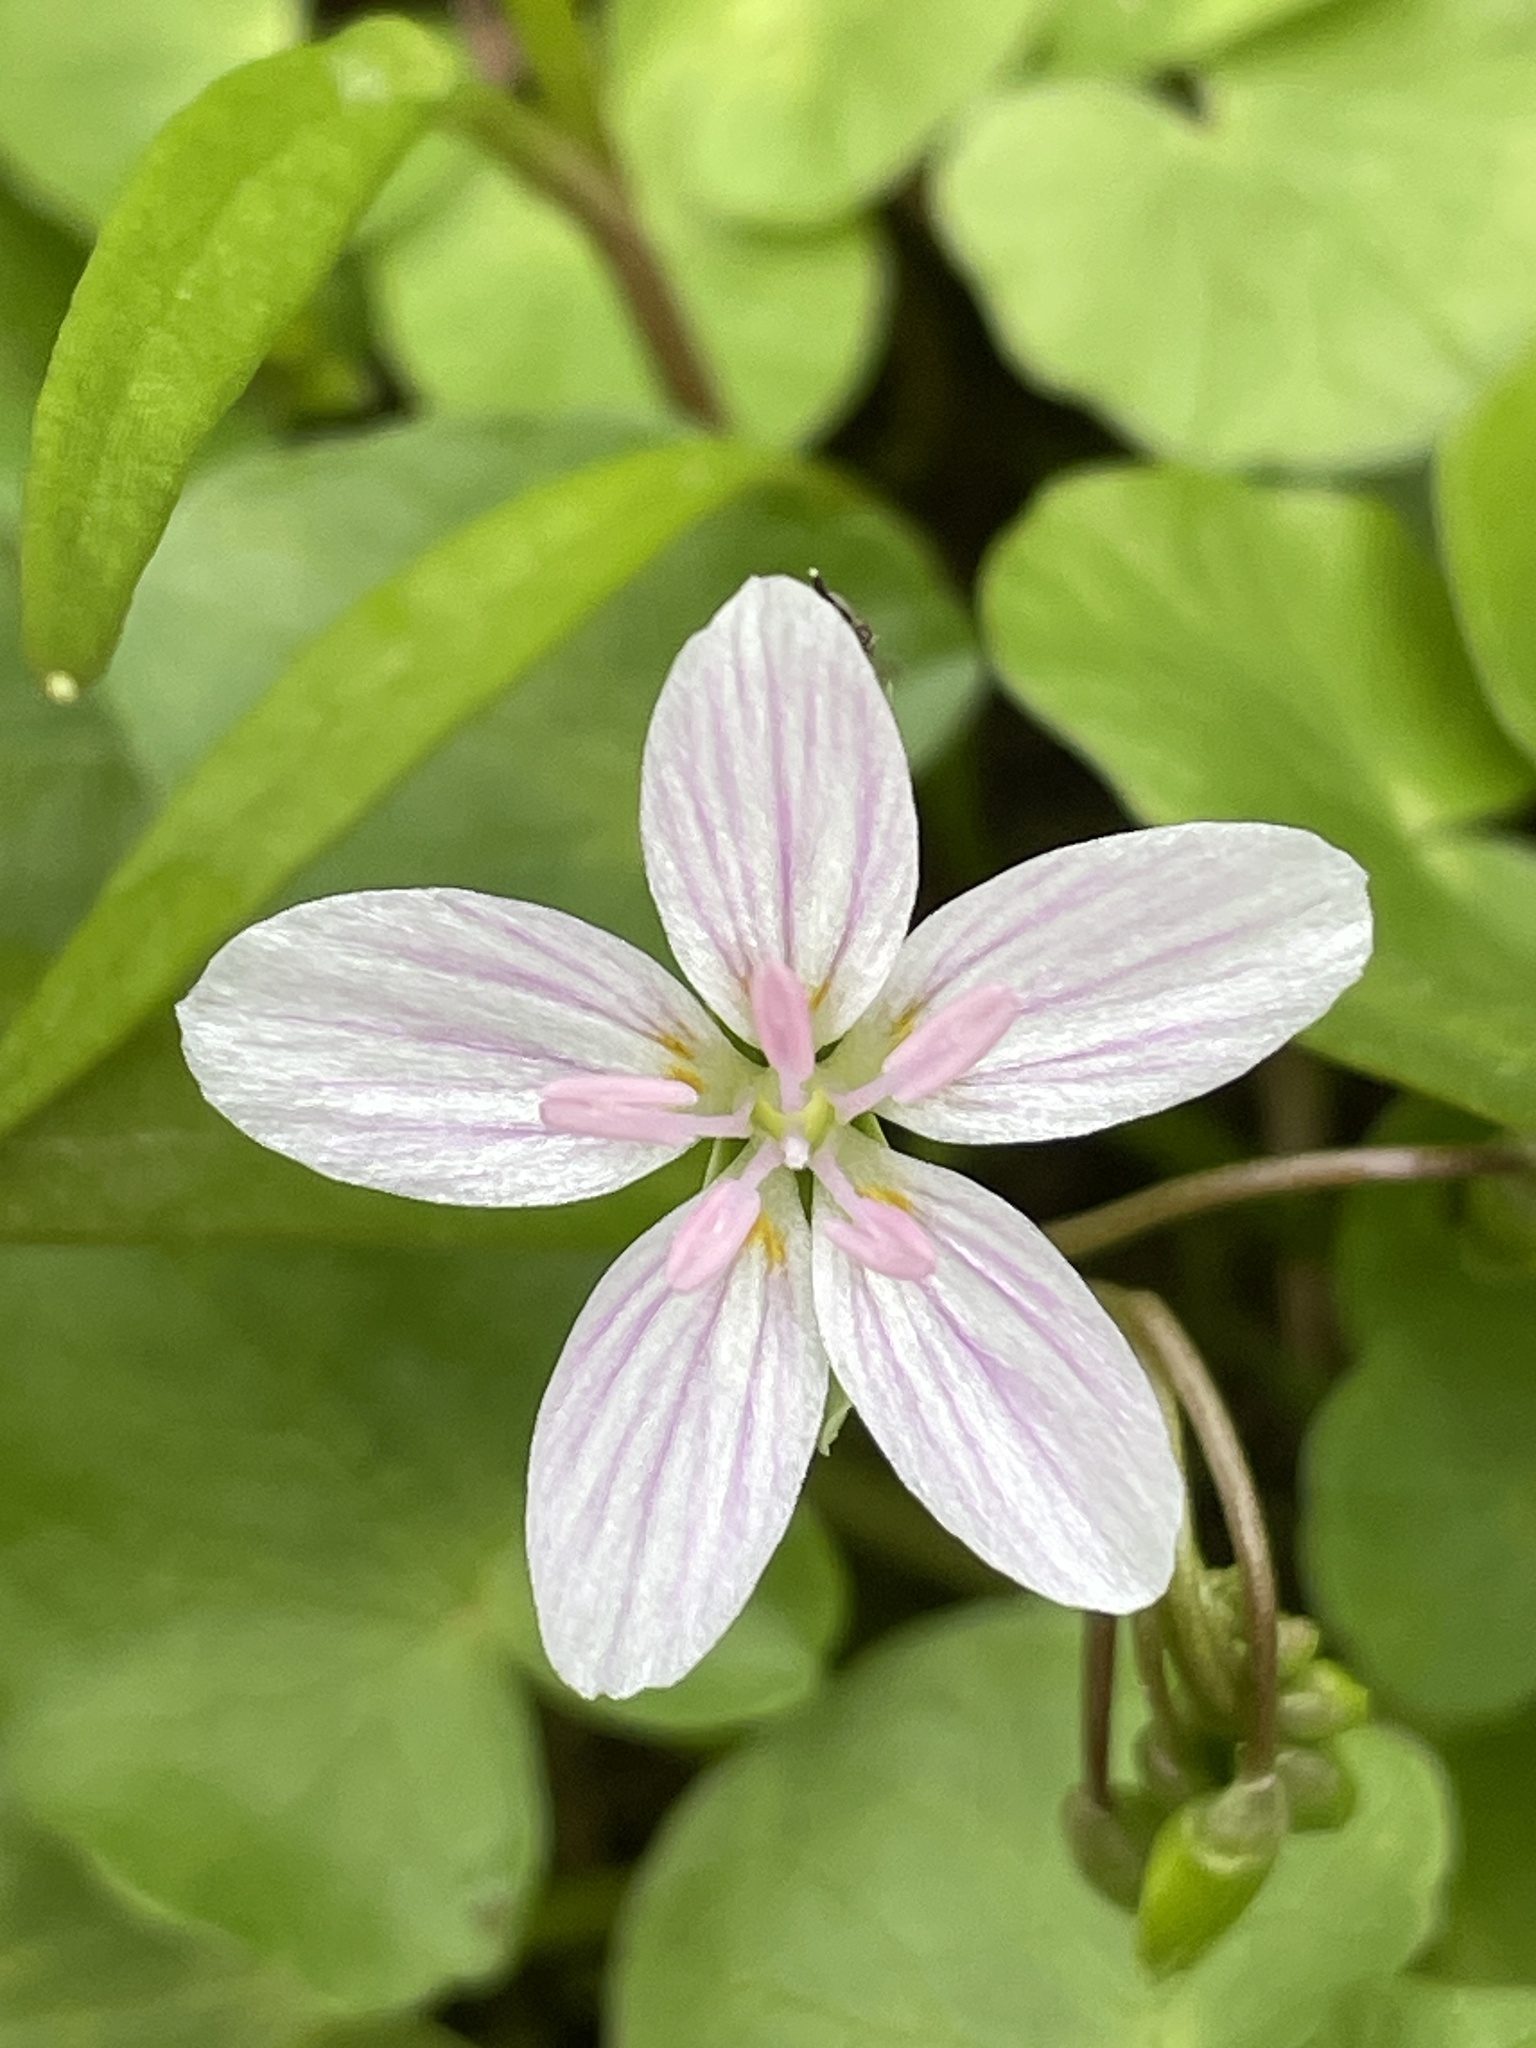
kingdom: Plantae
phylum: Tracheophyta
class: Magnoliopsida
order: Caryophyllales
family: Montiaceae
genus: Claytonia
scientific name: Claytonia virginica
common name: Virginia springbeauty
